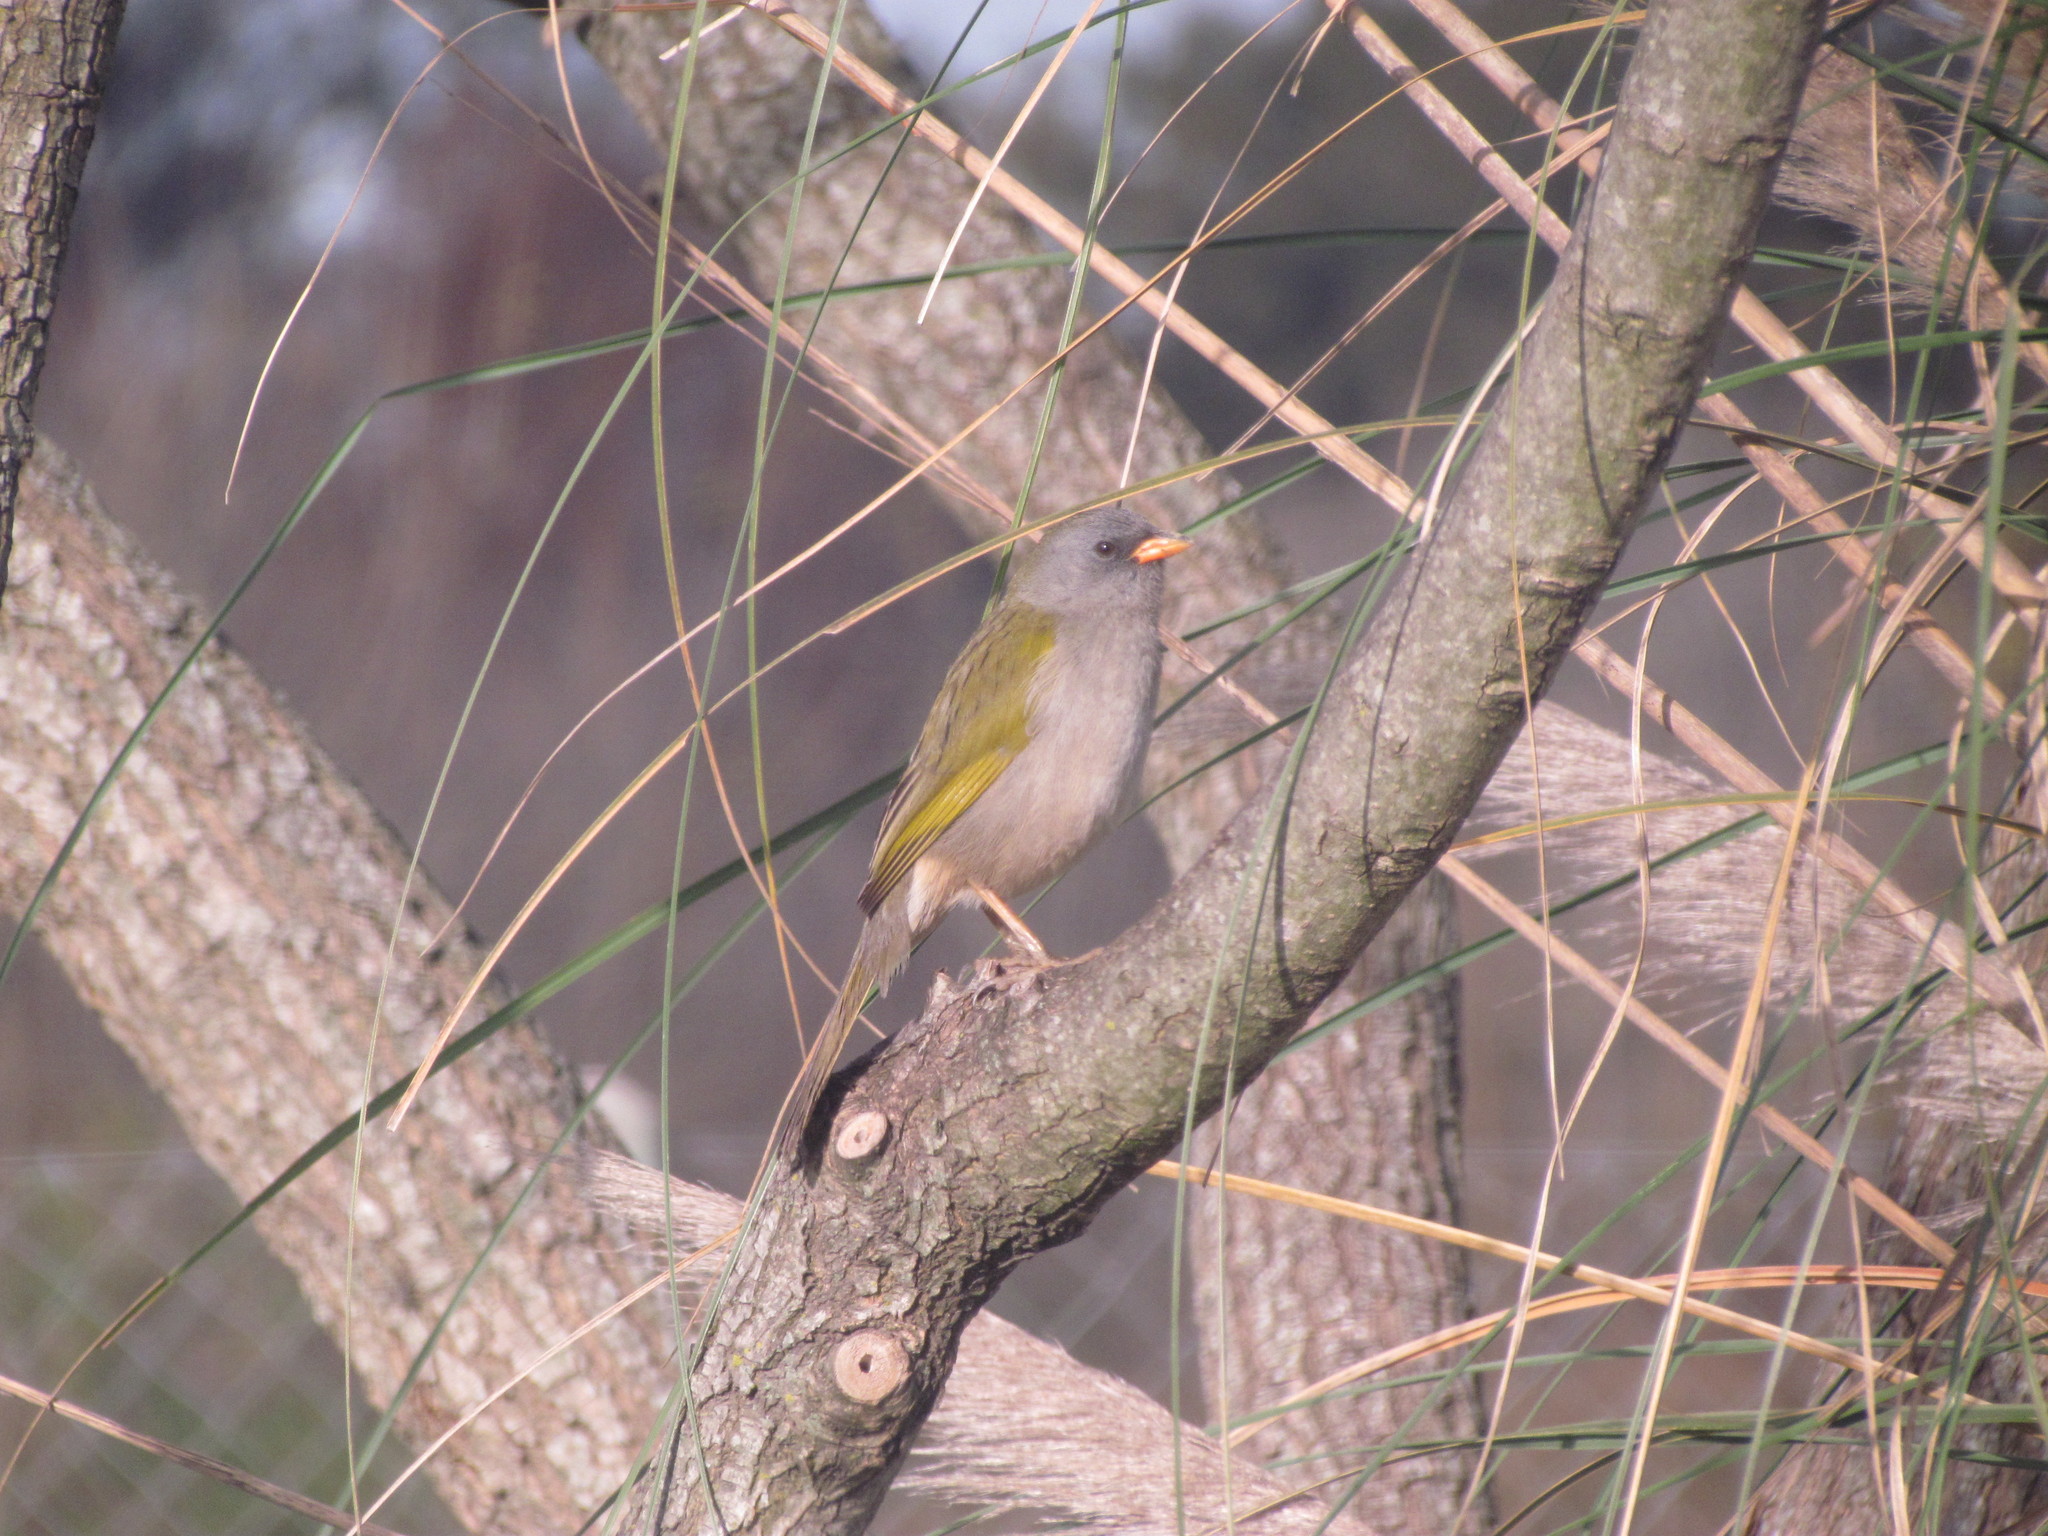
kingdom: Animalia
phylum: Chordata
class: Aves
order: Passeriformes
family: Thraupidae
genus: Embernagra
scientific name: Embernagra platensis
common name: Pampa finch
